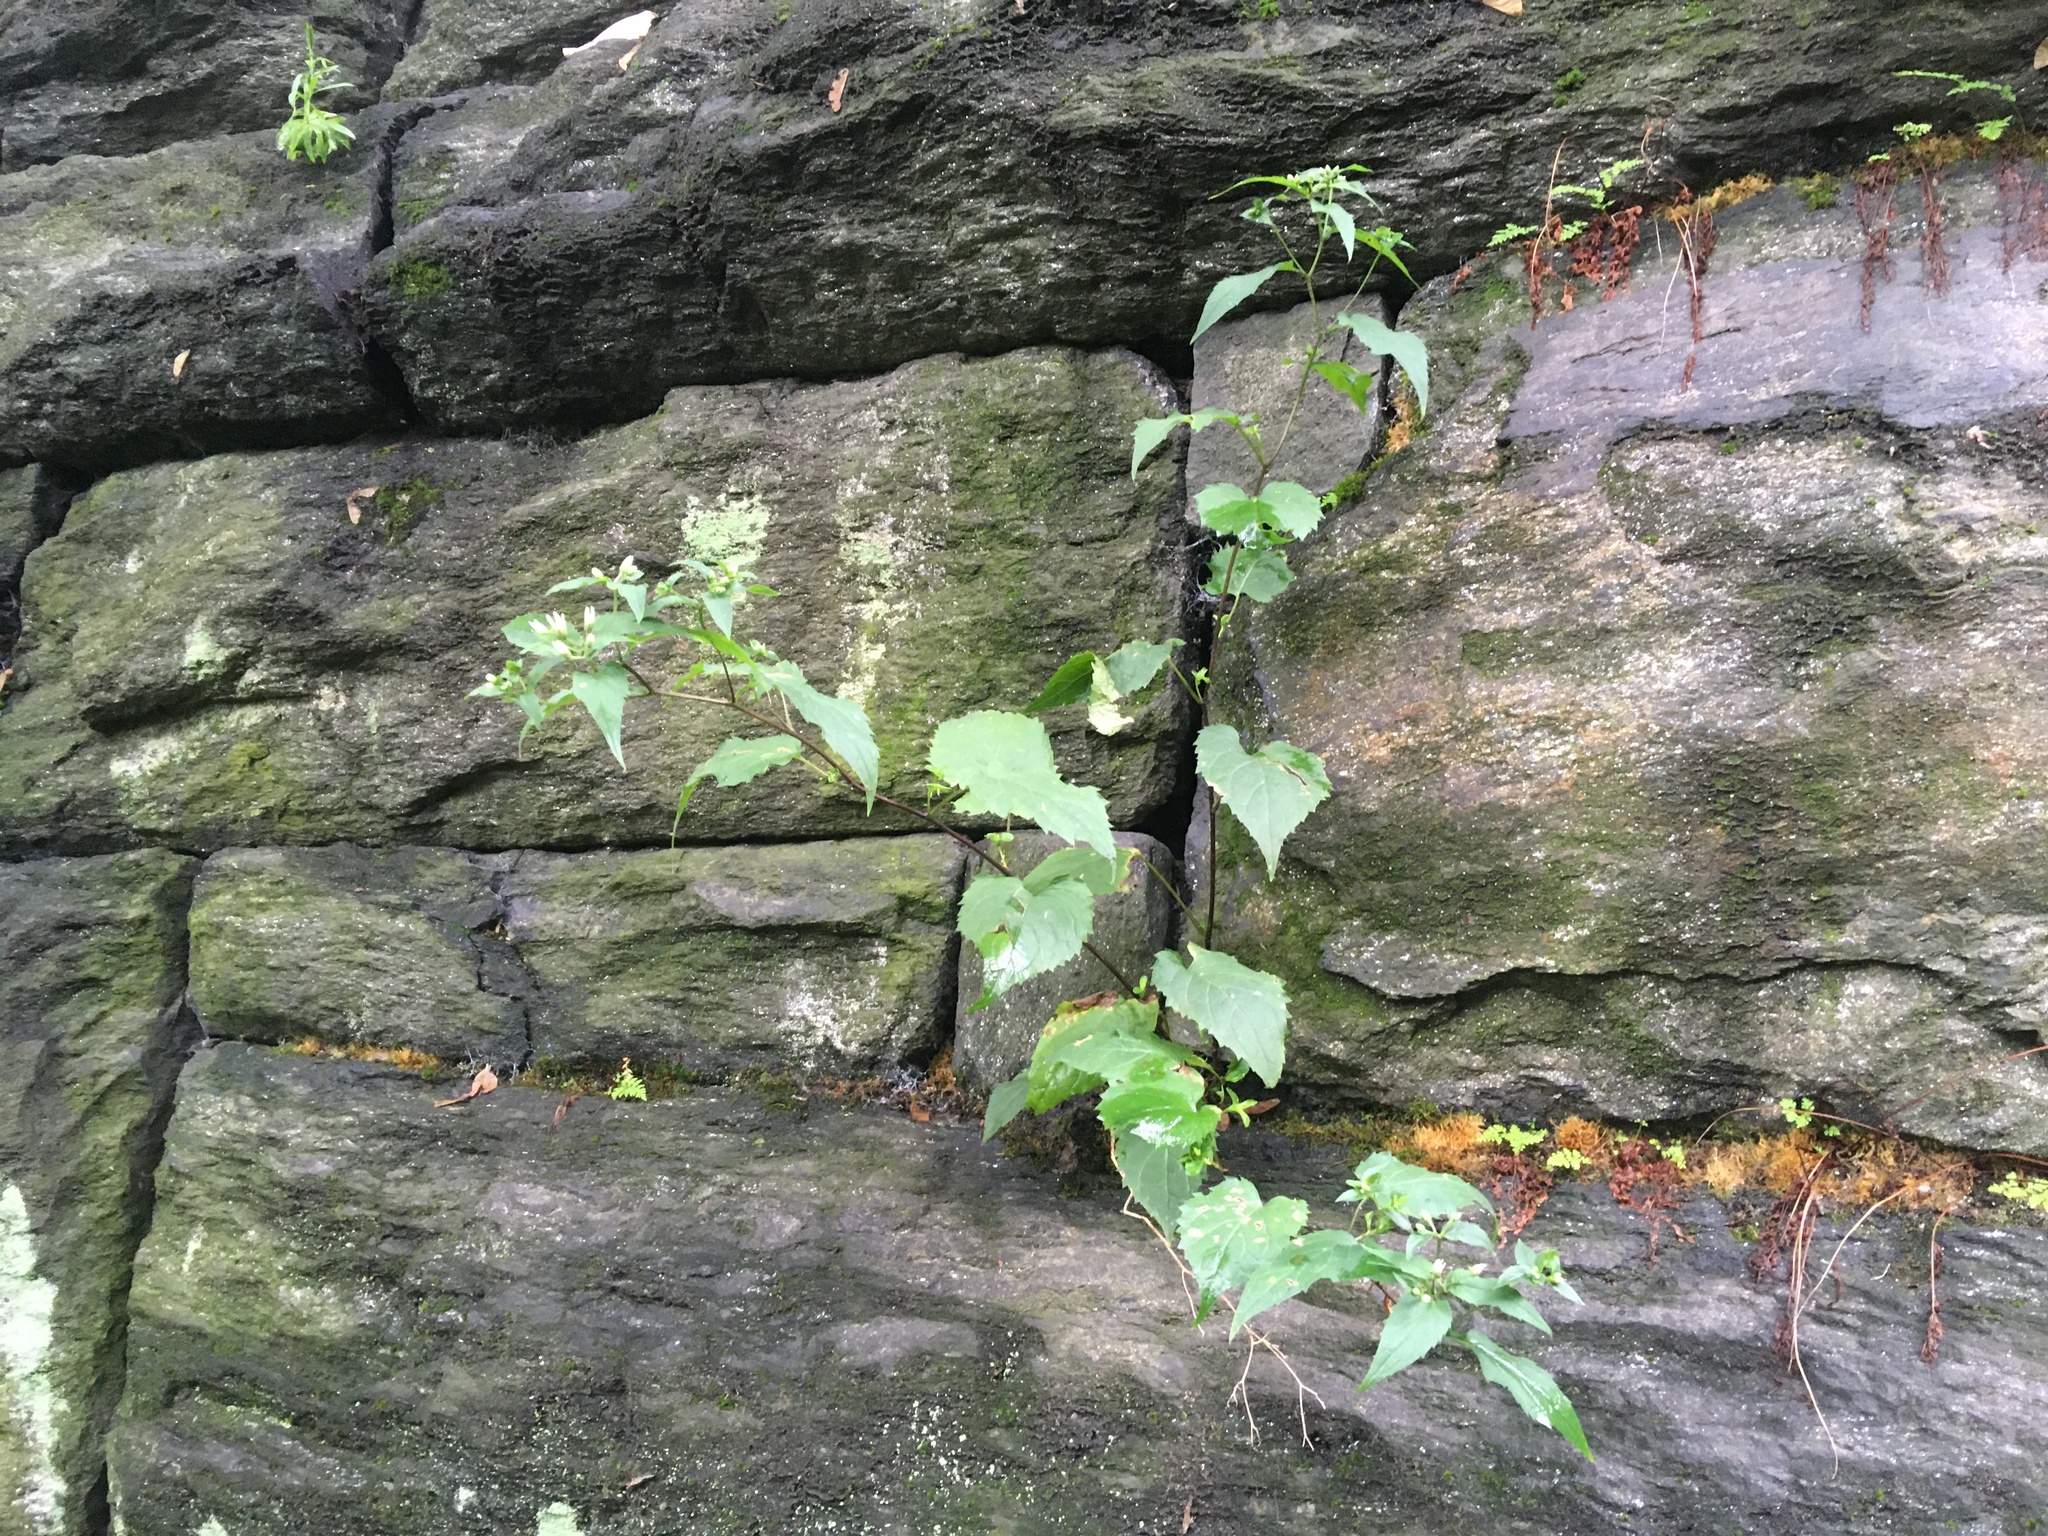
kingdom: Plantae
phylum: Tracheophyta
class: Magnoliopsida
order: Asterales
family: Asteraceae
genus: Eurybia
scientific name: Eurybia divaricata
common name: White wood aster
